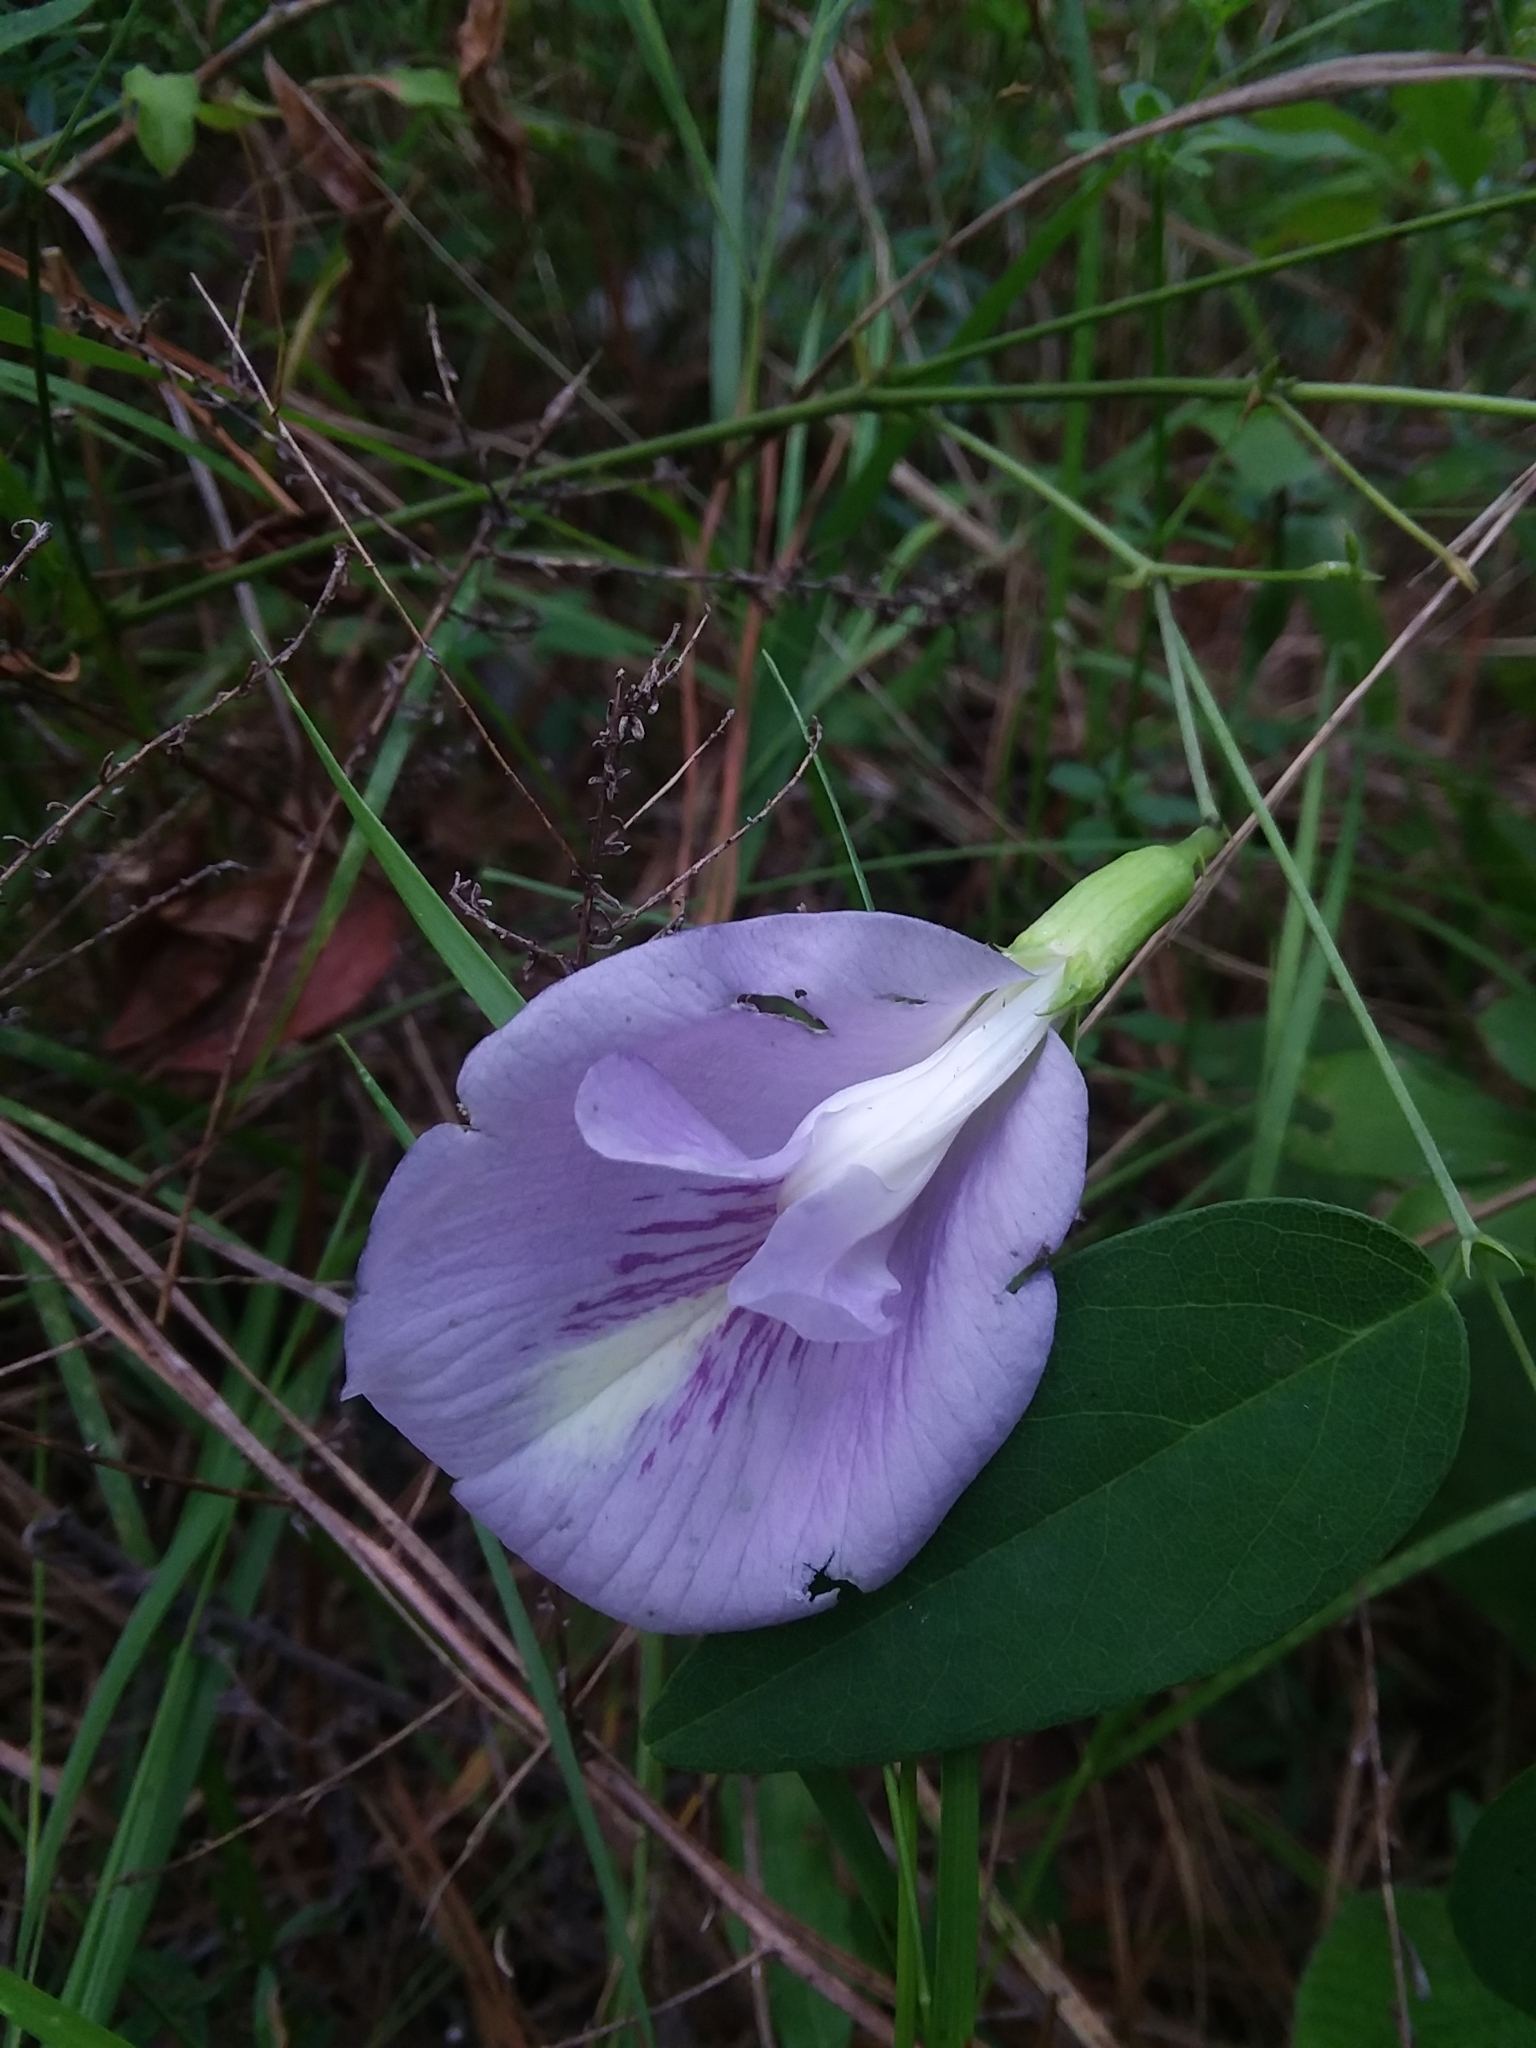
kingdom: Plantae
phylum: Tracheophyta
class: Magnoliopsida
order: Fabales
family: Fabaceae
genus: Clitoria
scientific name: Clitoria mariana
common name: Butterfly-pea
